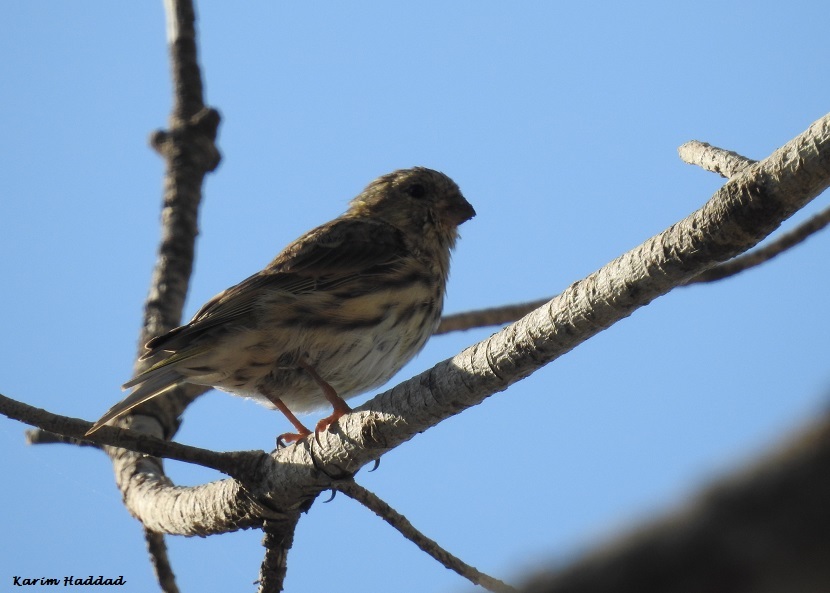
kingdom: Animalia
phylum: Chordata
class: Aves
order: Passeriformes
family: Fringillidae
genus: Serinus
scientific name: Serinus serinus
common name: European serin
